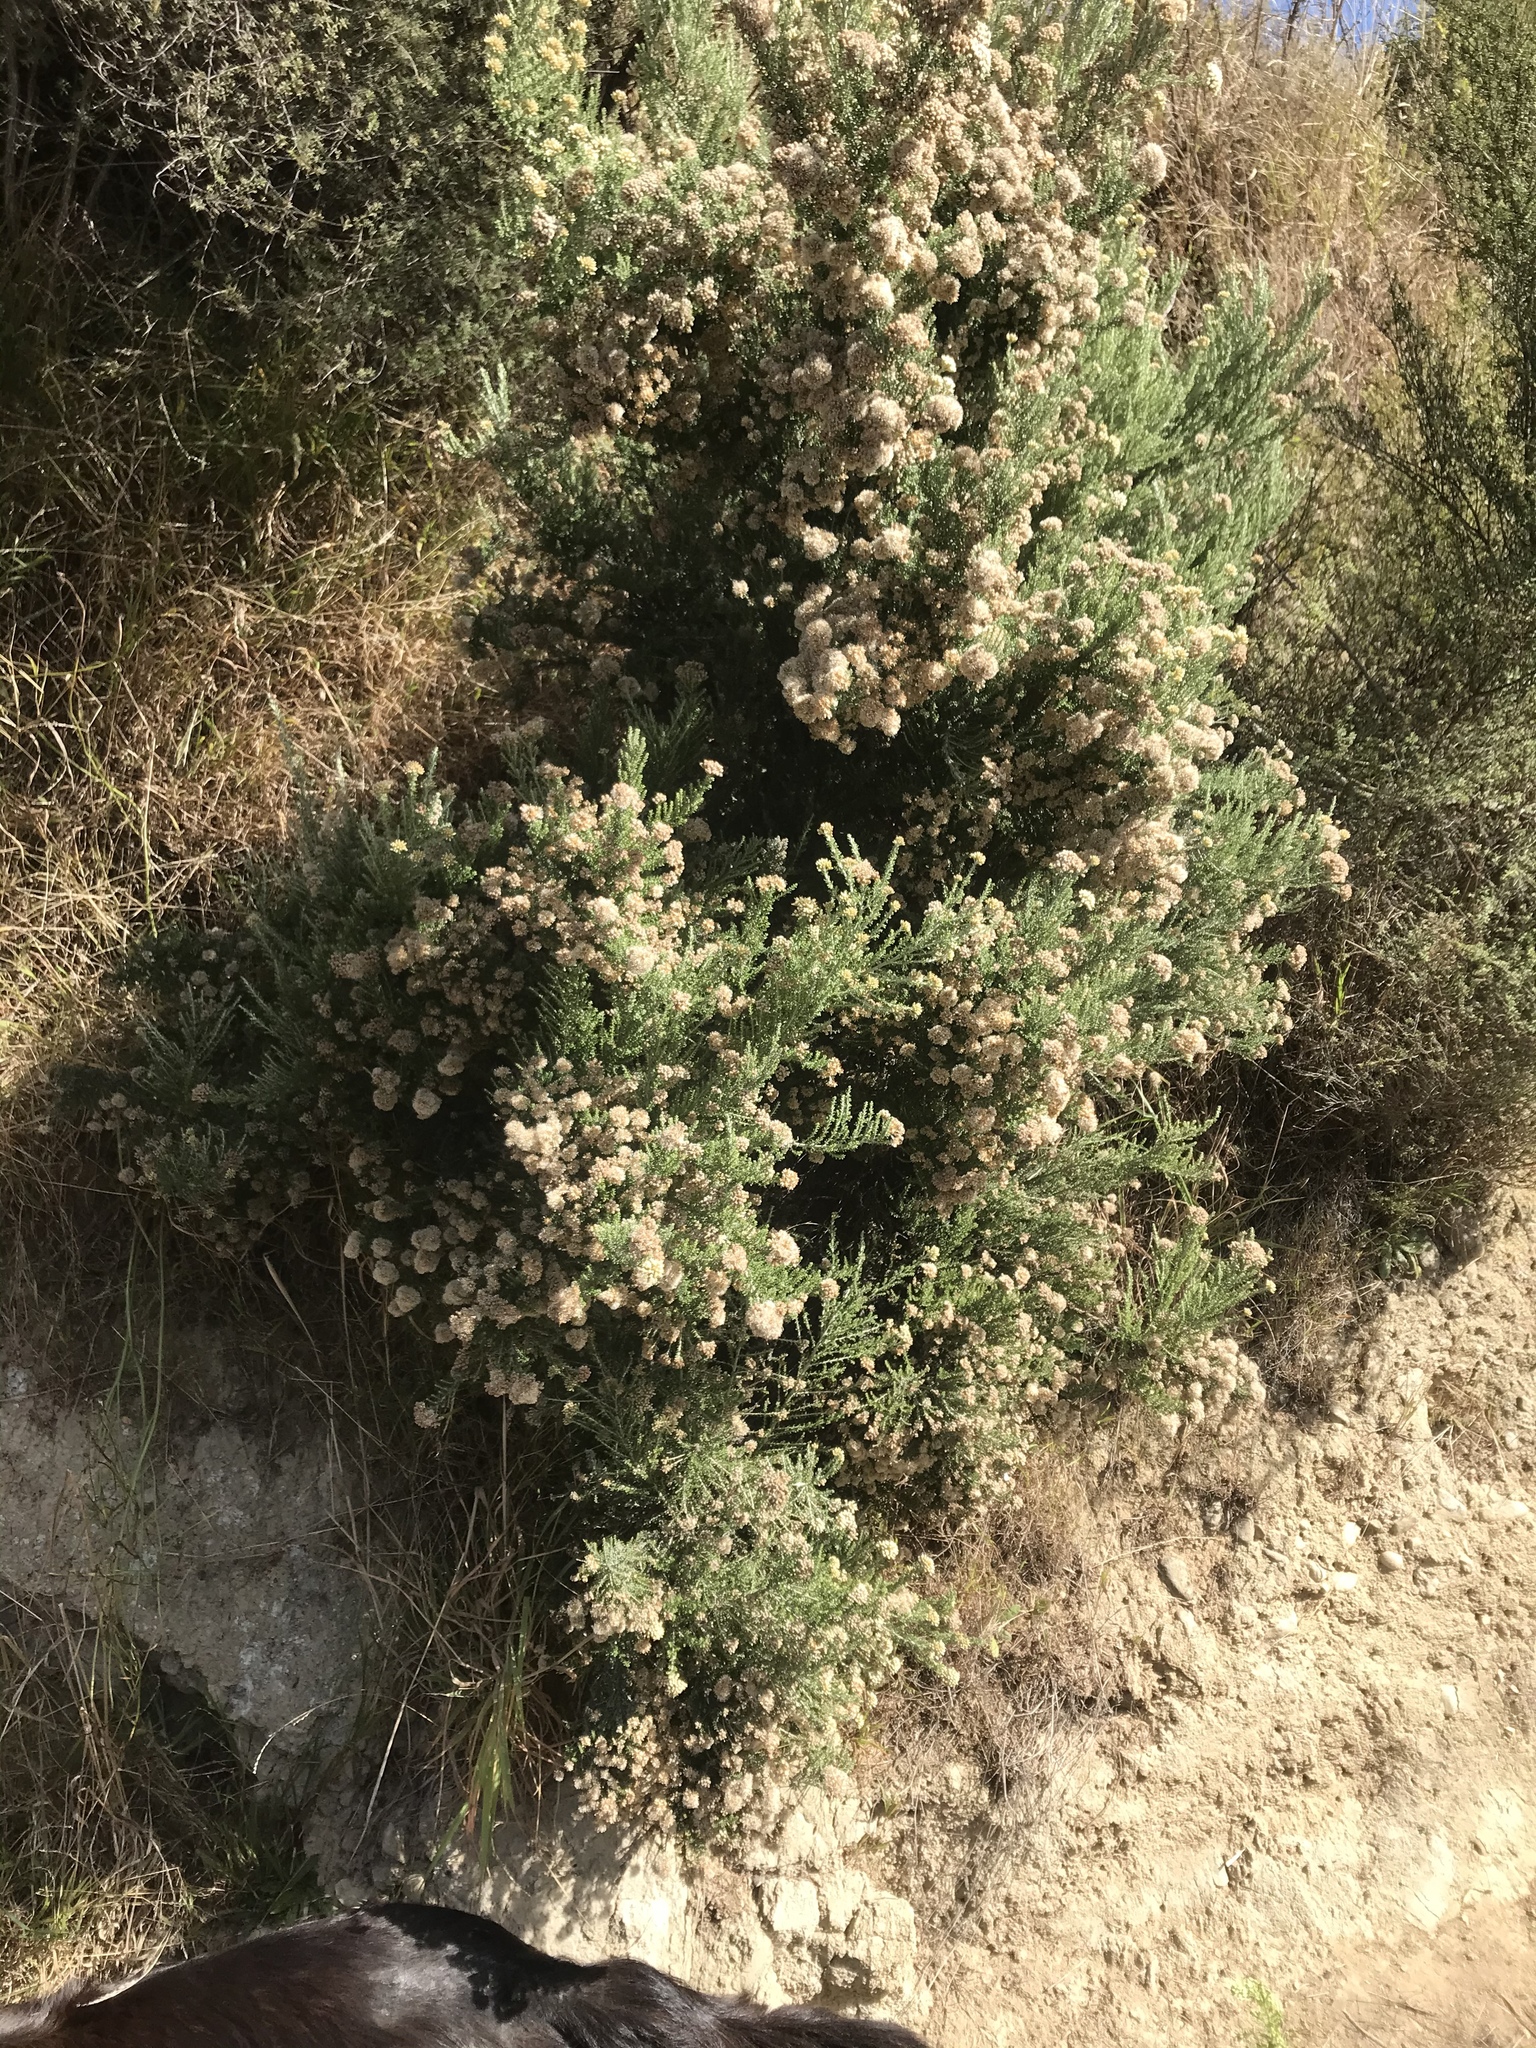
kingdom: Plantae
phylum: Tracheophyta
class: Magnoliopsida
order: Asterales
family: Asteraceae
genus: Ozothamnus
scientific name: Ozothamnus leptophyllus
